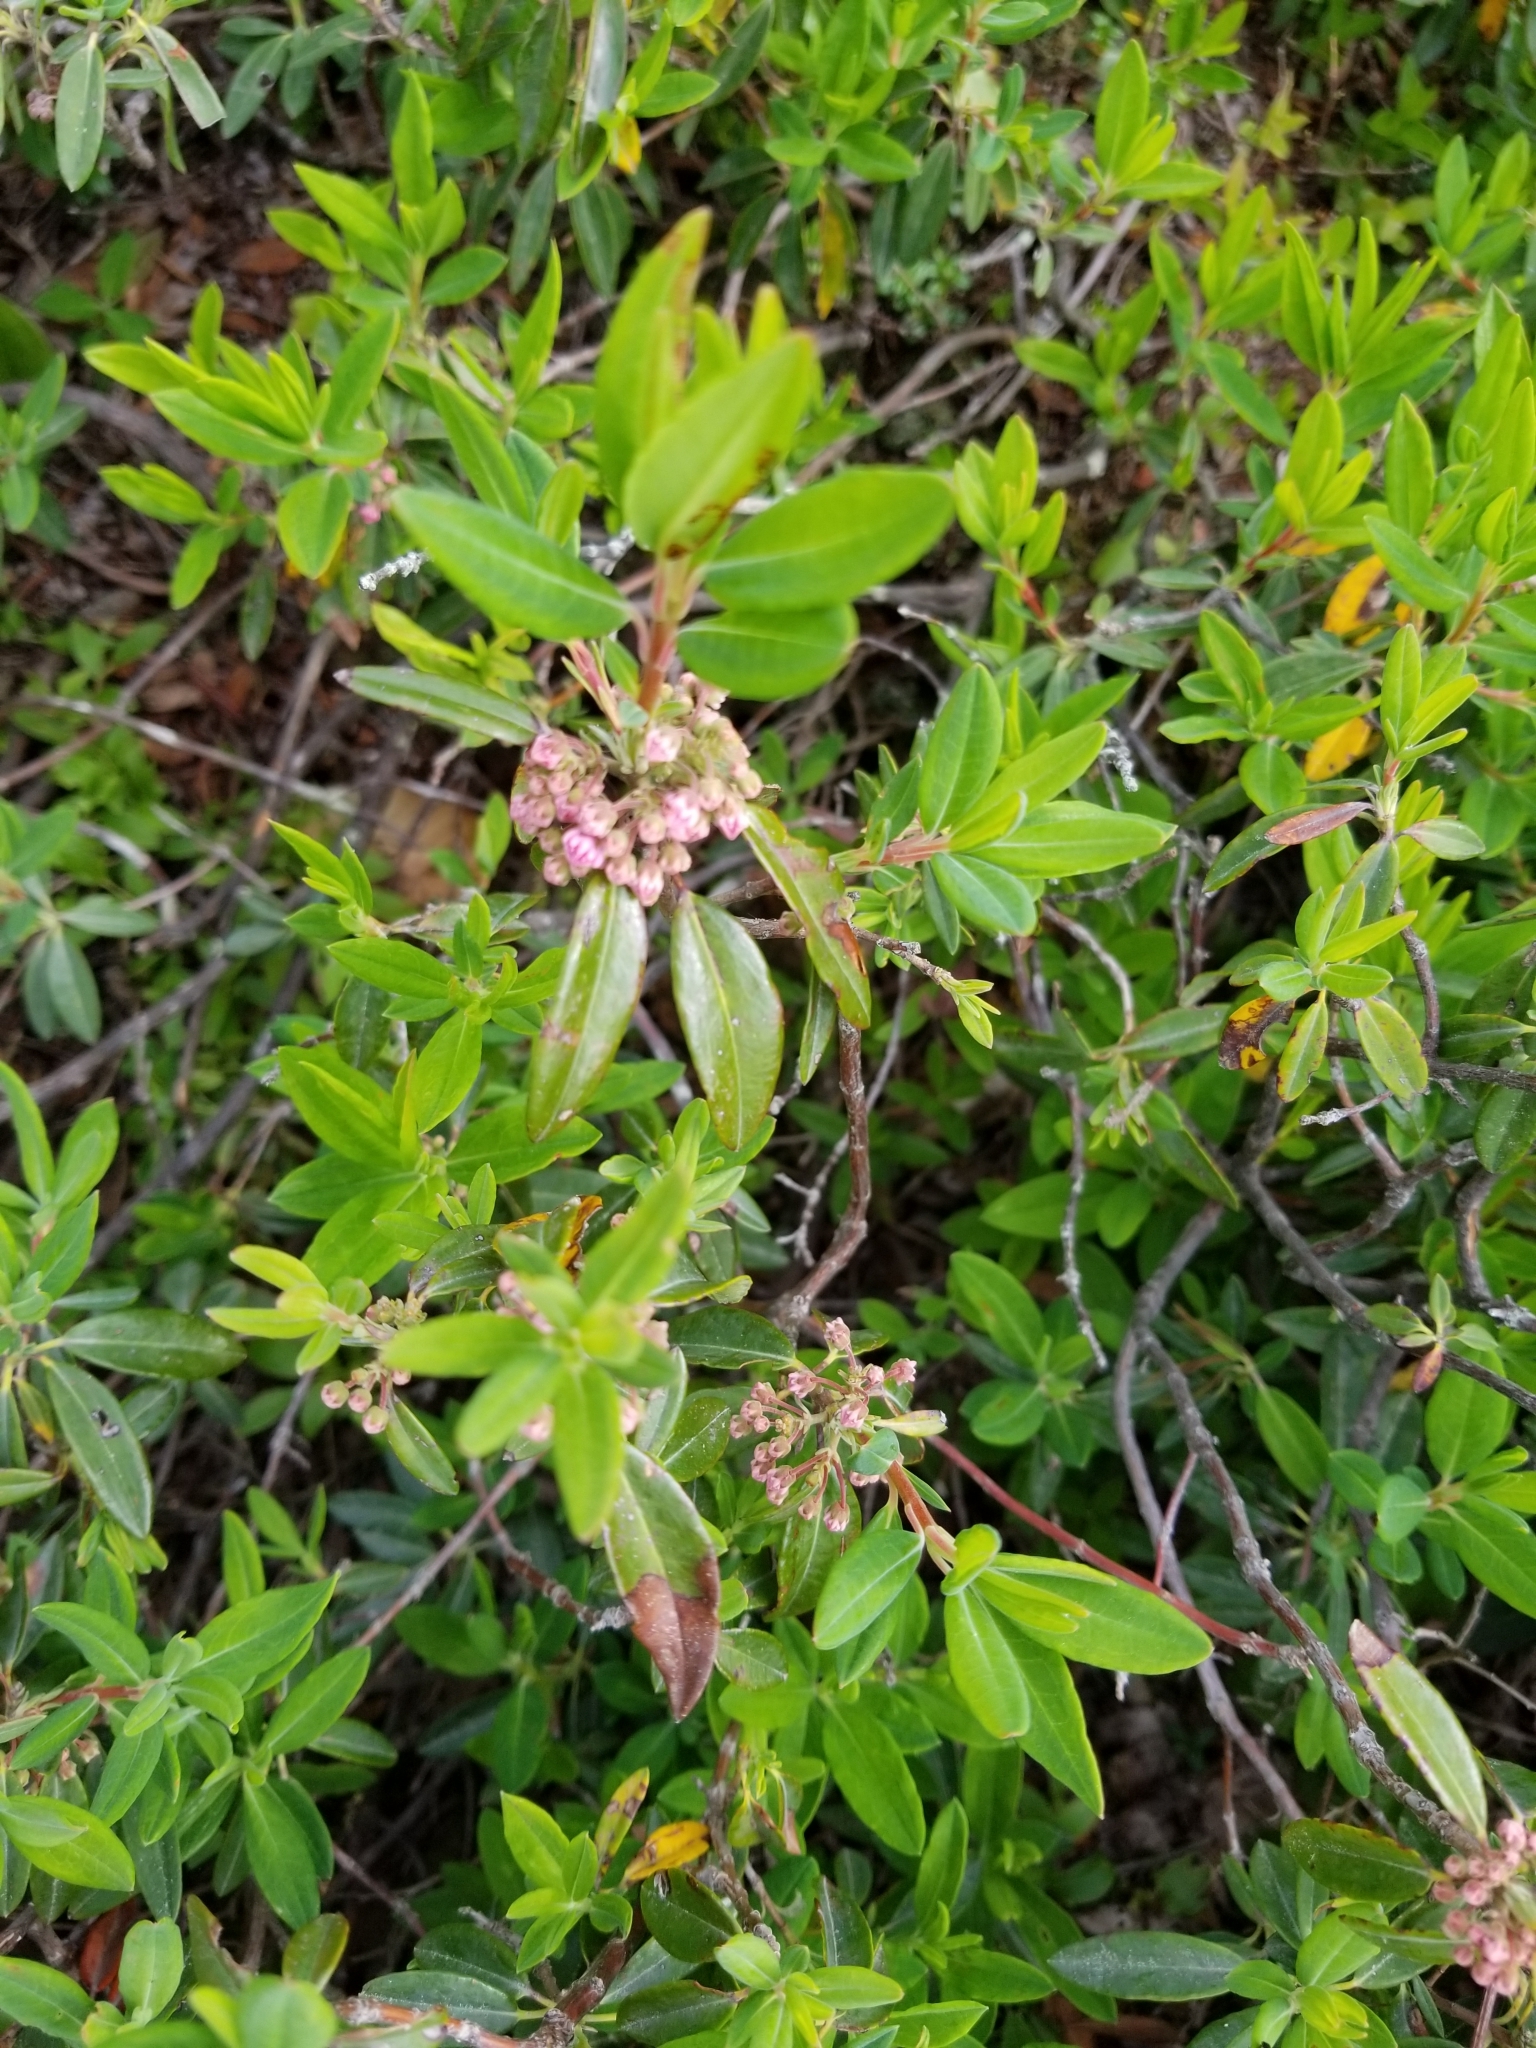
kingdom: Plantae
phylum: Tracheophyta
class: Magnoliopsida
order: Ericales
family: Ericaceae
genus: Kalmia
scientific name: Kalmia angustifolia
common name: Sheep-laurel
